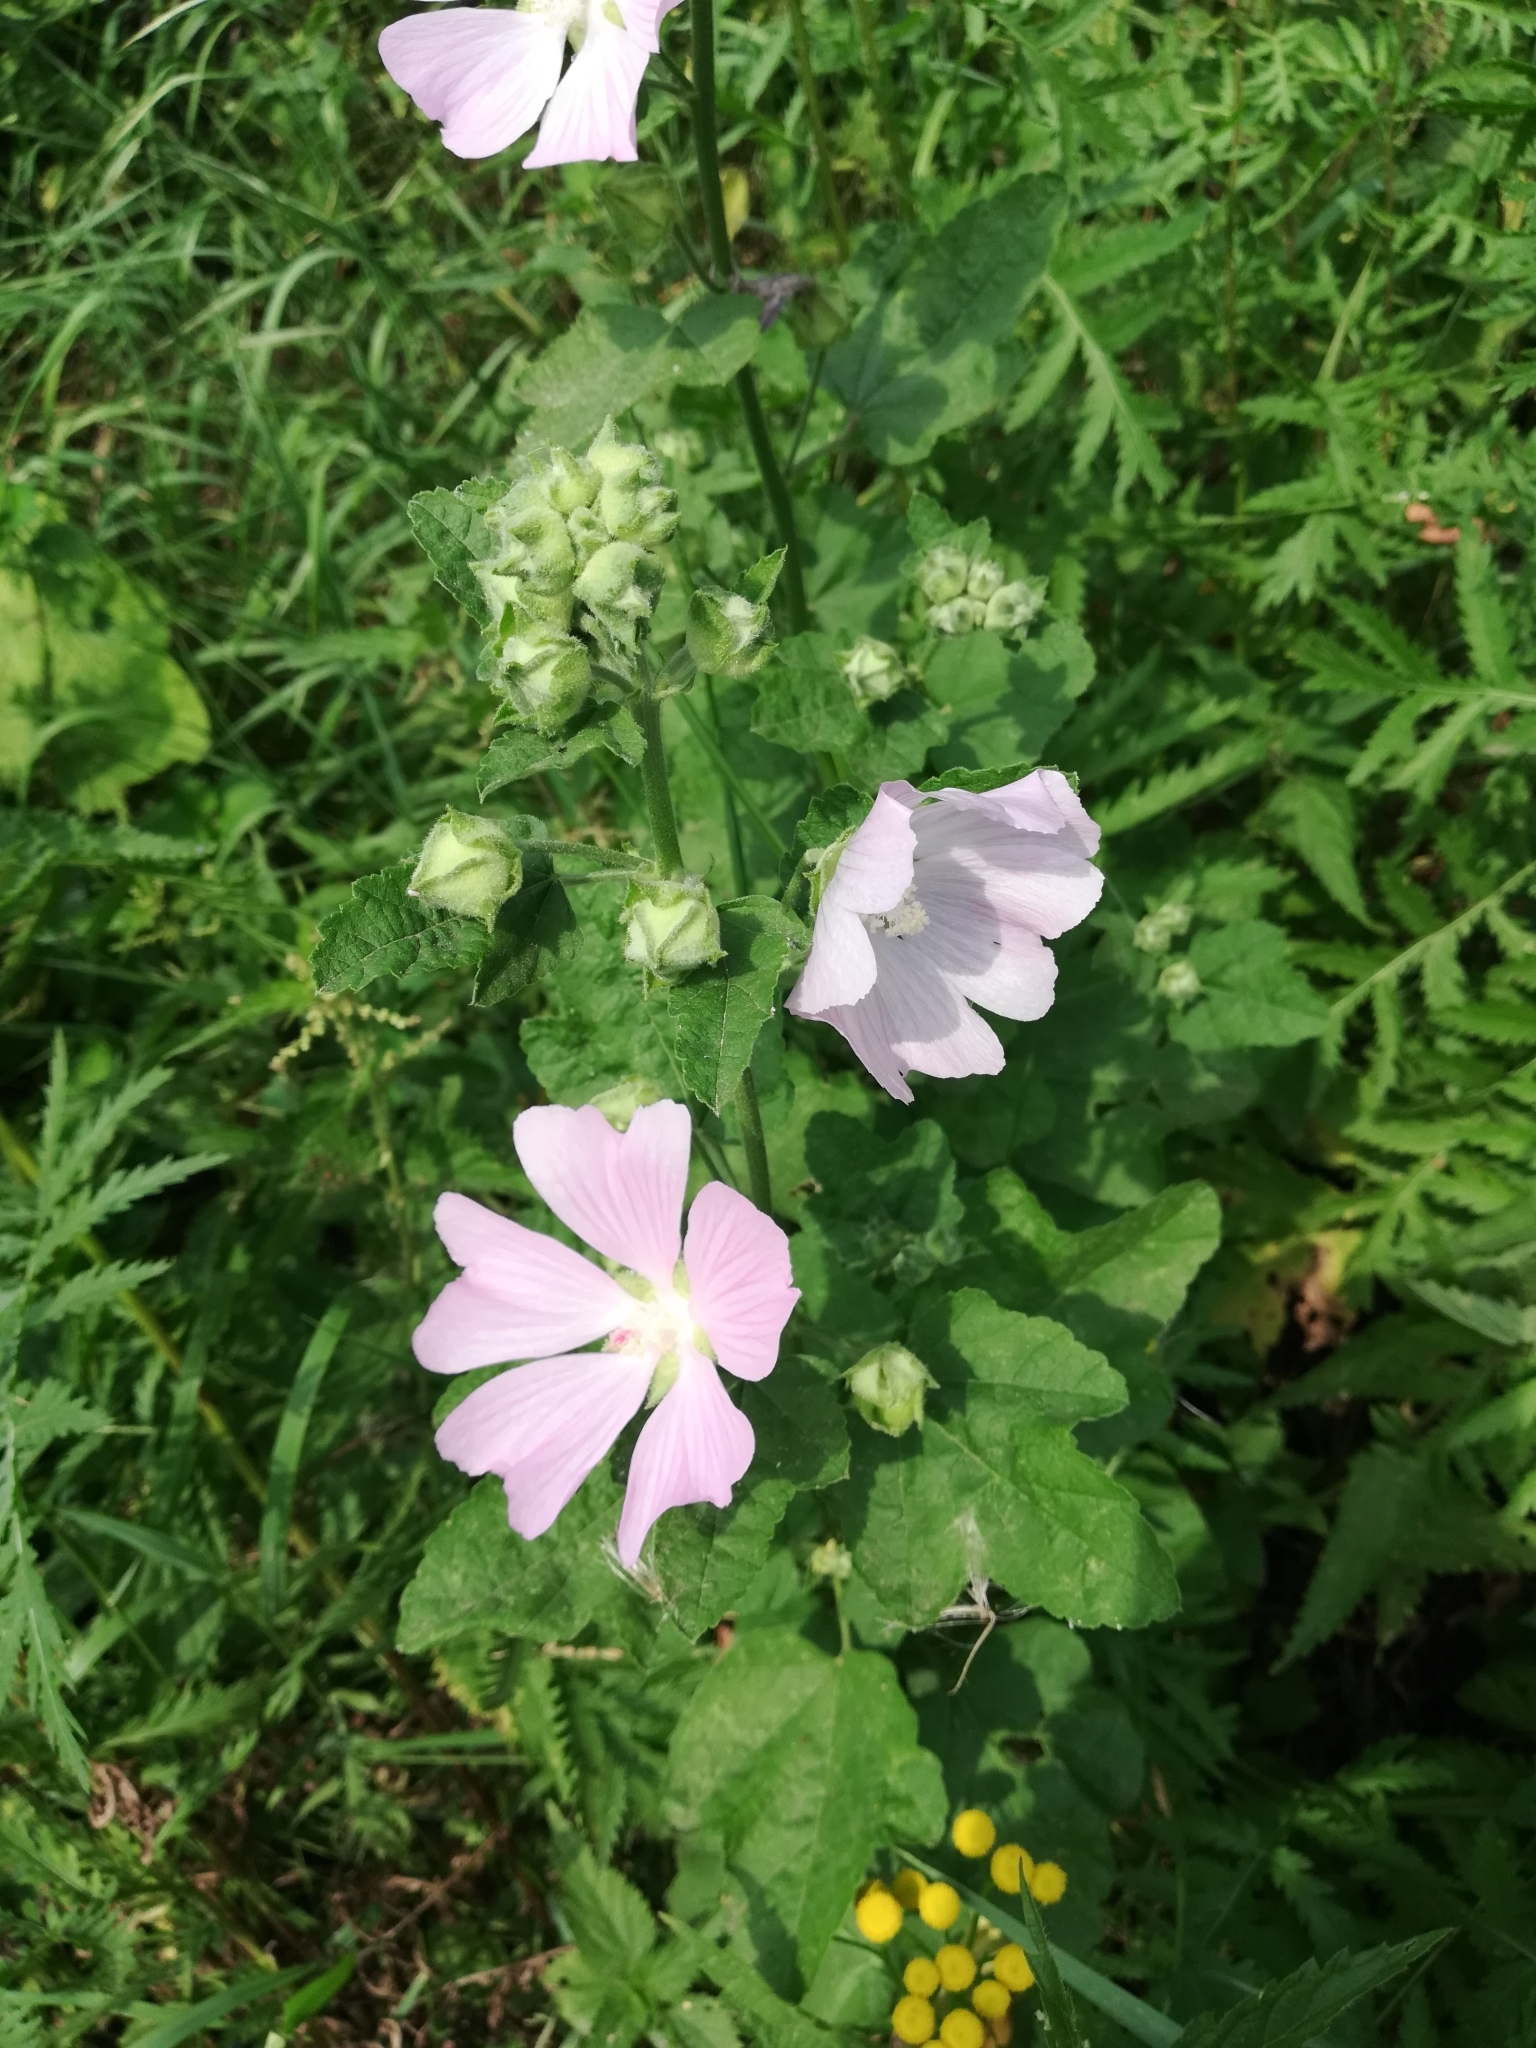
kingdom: Plantae
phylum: Tracheophyta
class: Magnoliopsida
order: Malvales
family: Malvaceae
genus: Malva
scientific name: Malva thuringiaca
